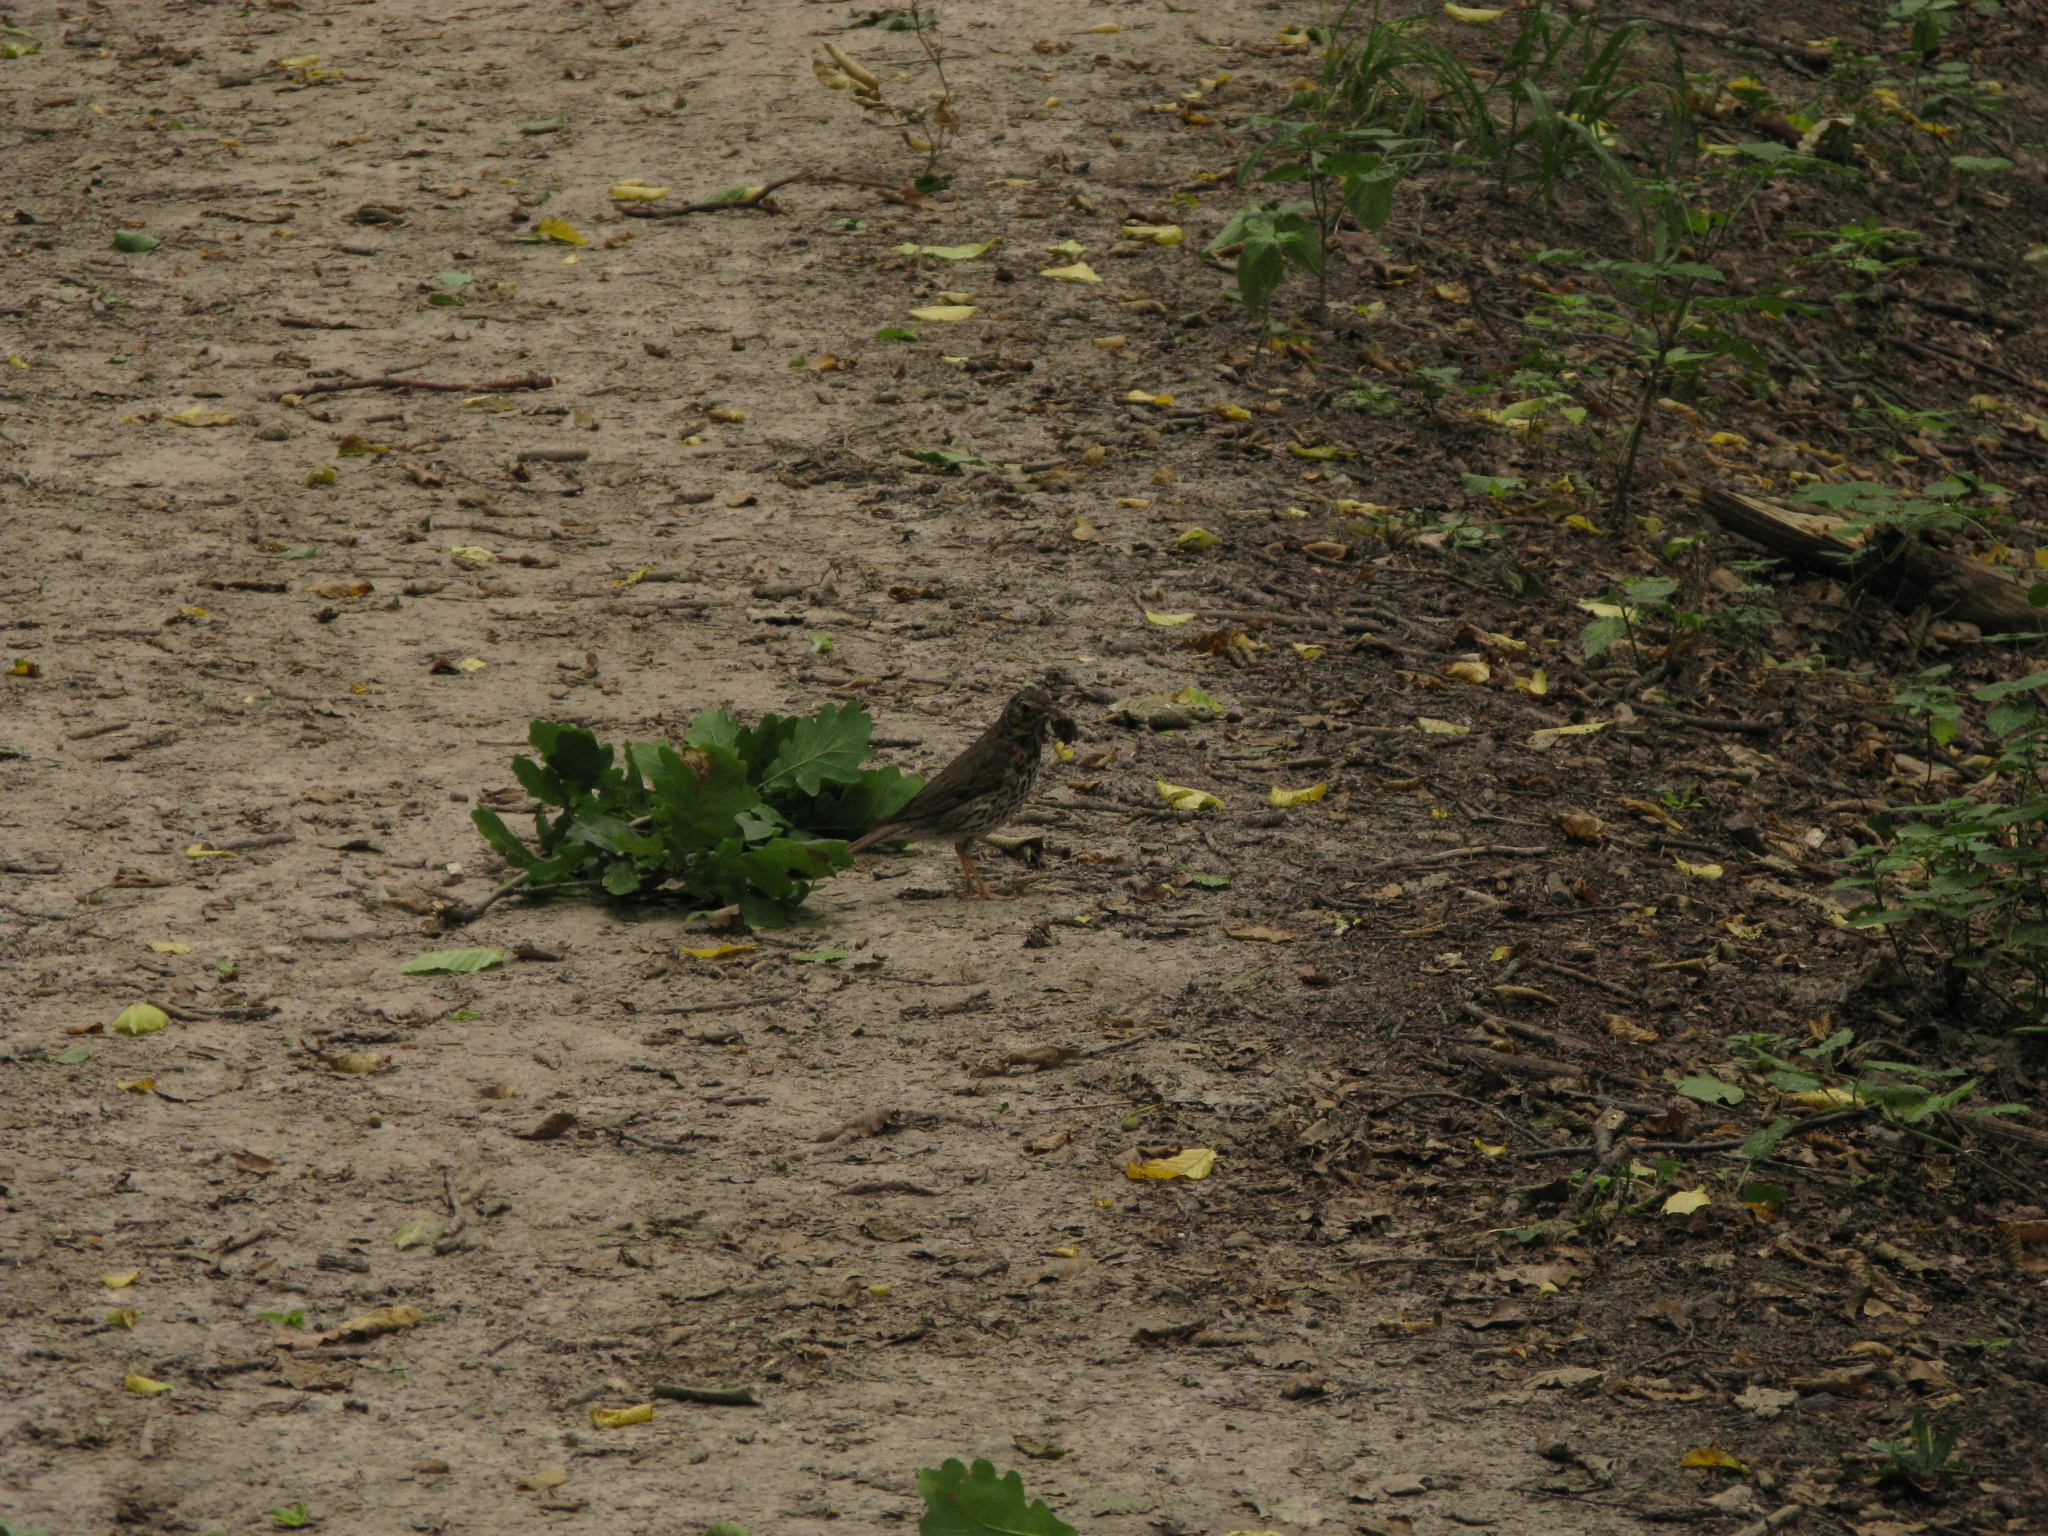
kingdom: Animalia
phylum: Chordata
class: Aves
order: Passeriformes
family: Turdidae
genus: Turdus
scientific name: Turdus philomelos
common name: Song thrush
